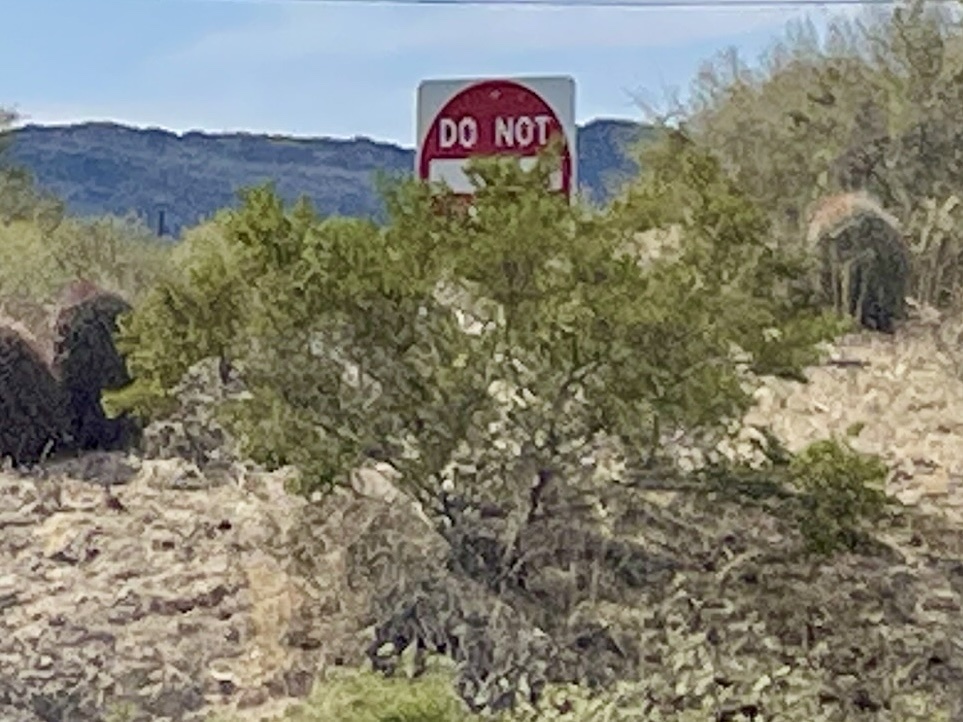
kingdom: Plantae
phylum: Tracheophyta
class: Magnoliopsida
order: Zygophyllales
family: Zygophyllaceae
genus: Larrea
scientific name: Larrea tridentata
